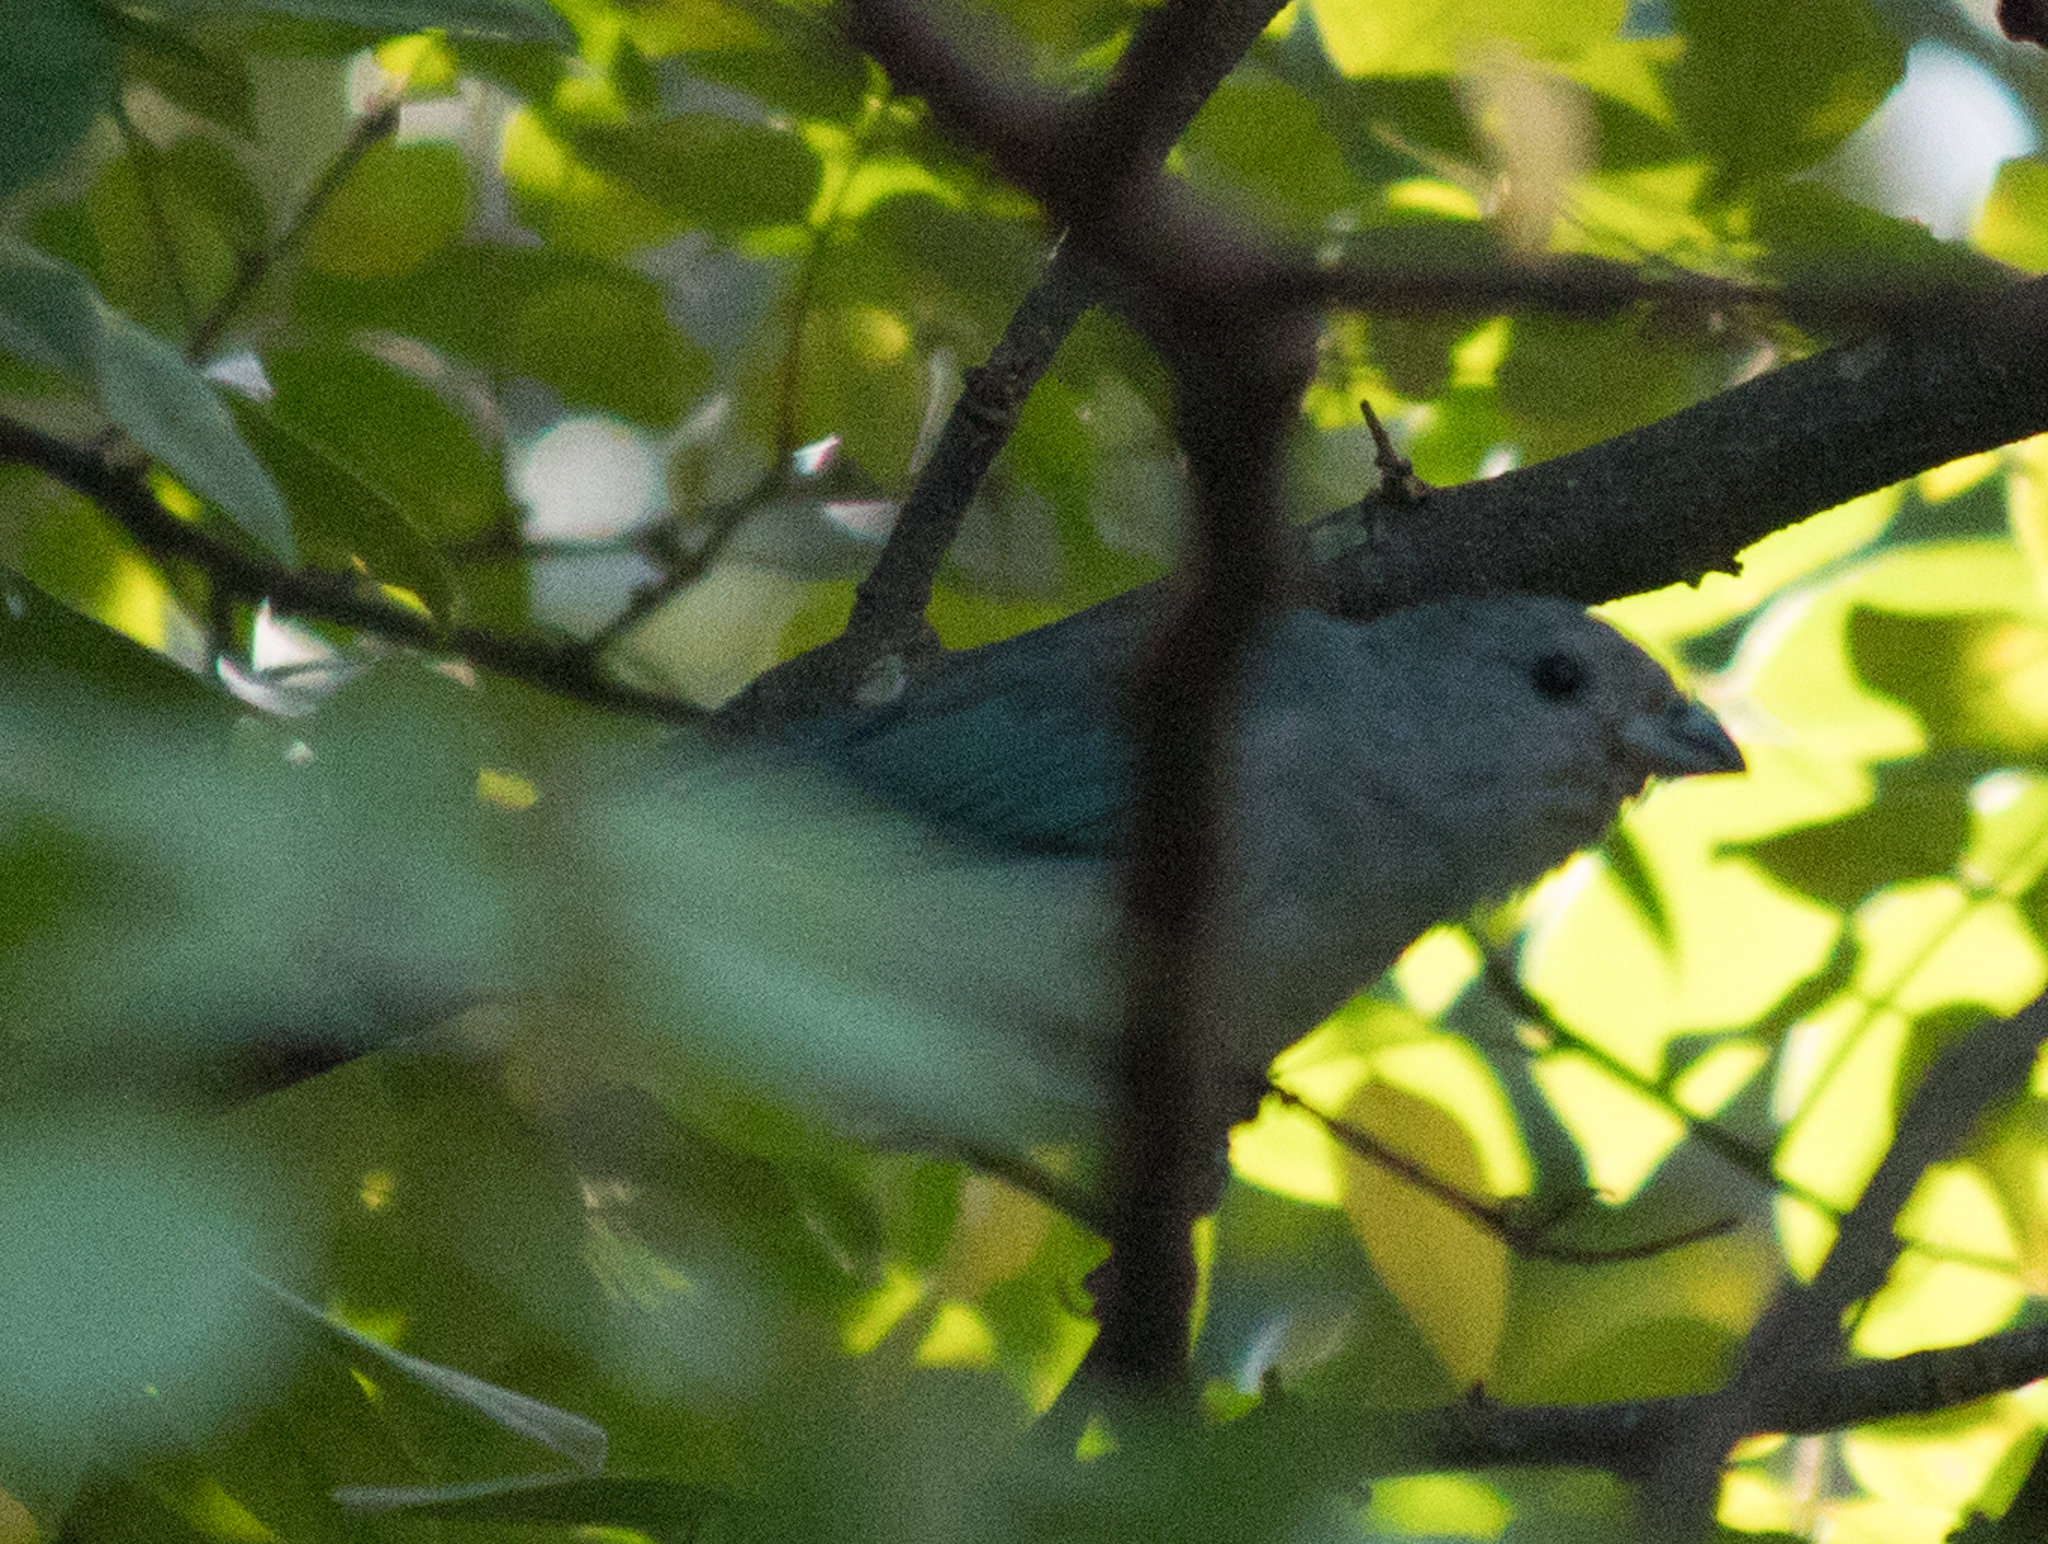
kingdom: Animalia
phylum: Chordata
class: Aves
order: Passeriformes
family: Thraupidae
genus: Thraupis
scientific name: Thraupis sayaca
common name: Sayaca tanager
